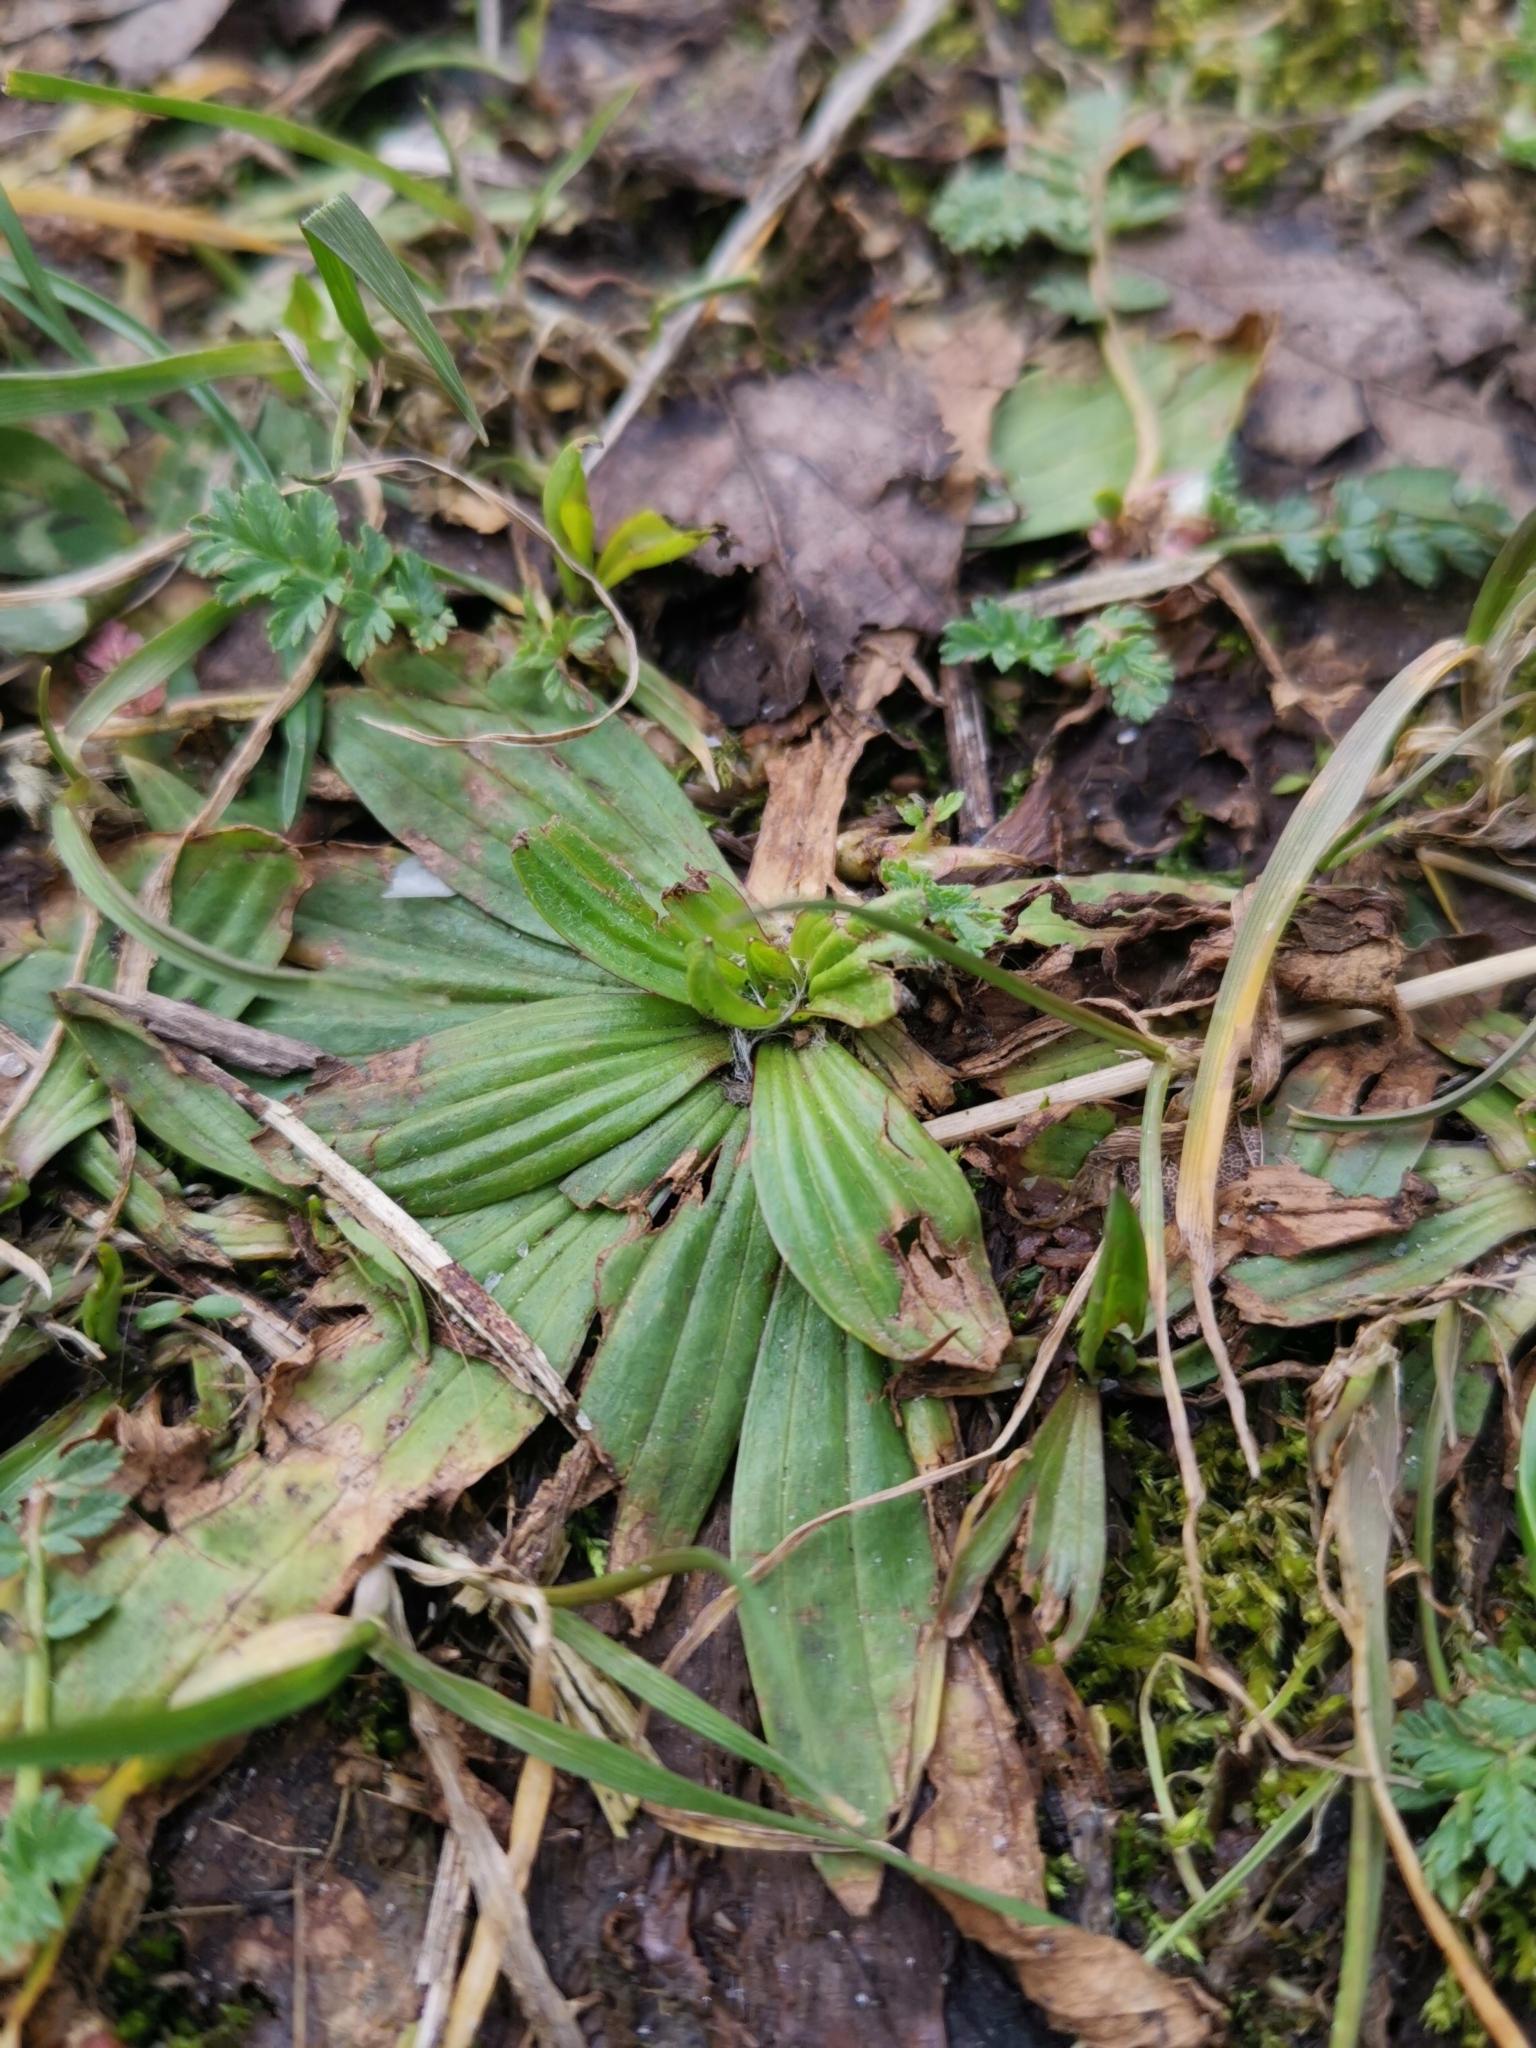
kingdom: Plantae
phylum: Tracheophyta
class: Magnoliopsida
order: Lamiales
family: Plantaginaceae
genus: Plantago
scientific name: Plantago media
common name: Hoary plantain
